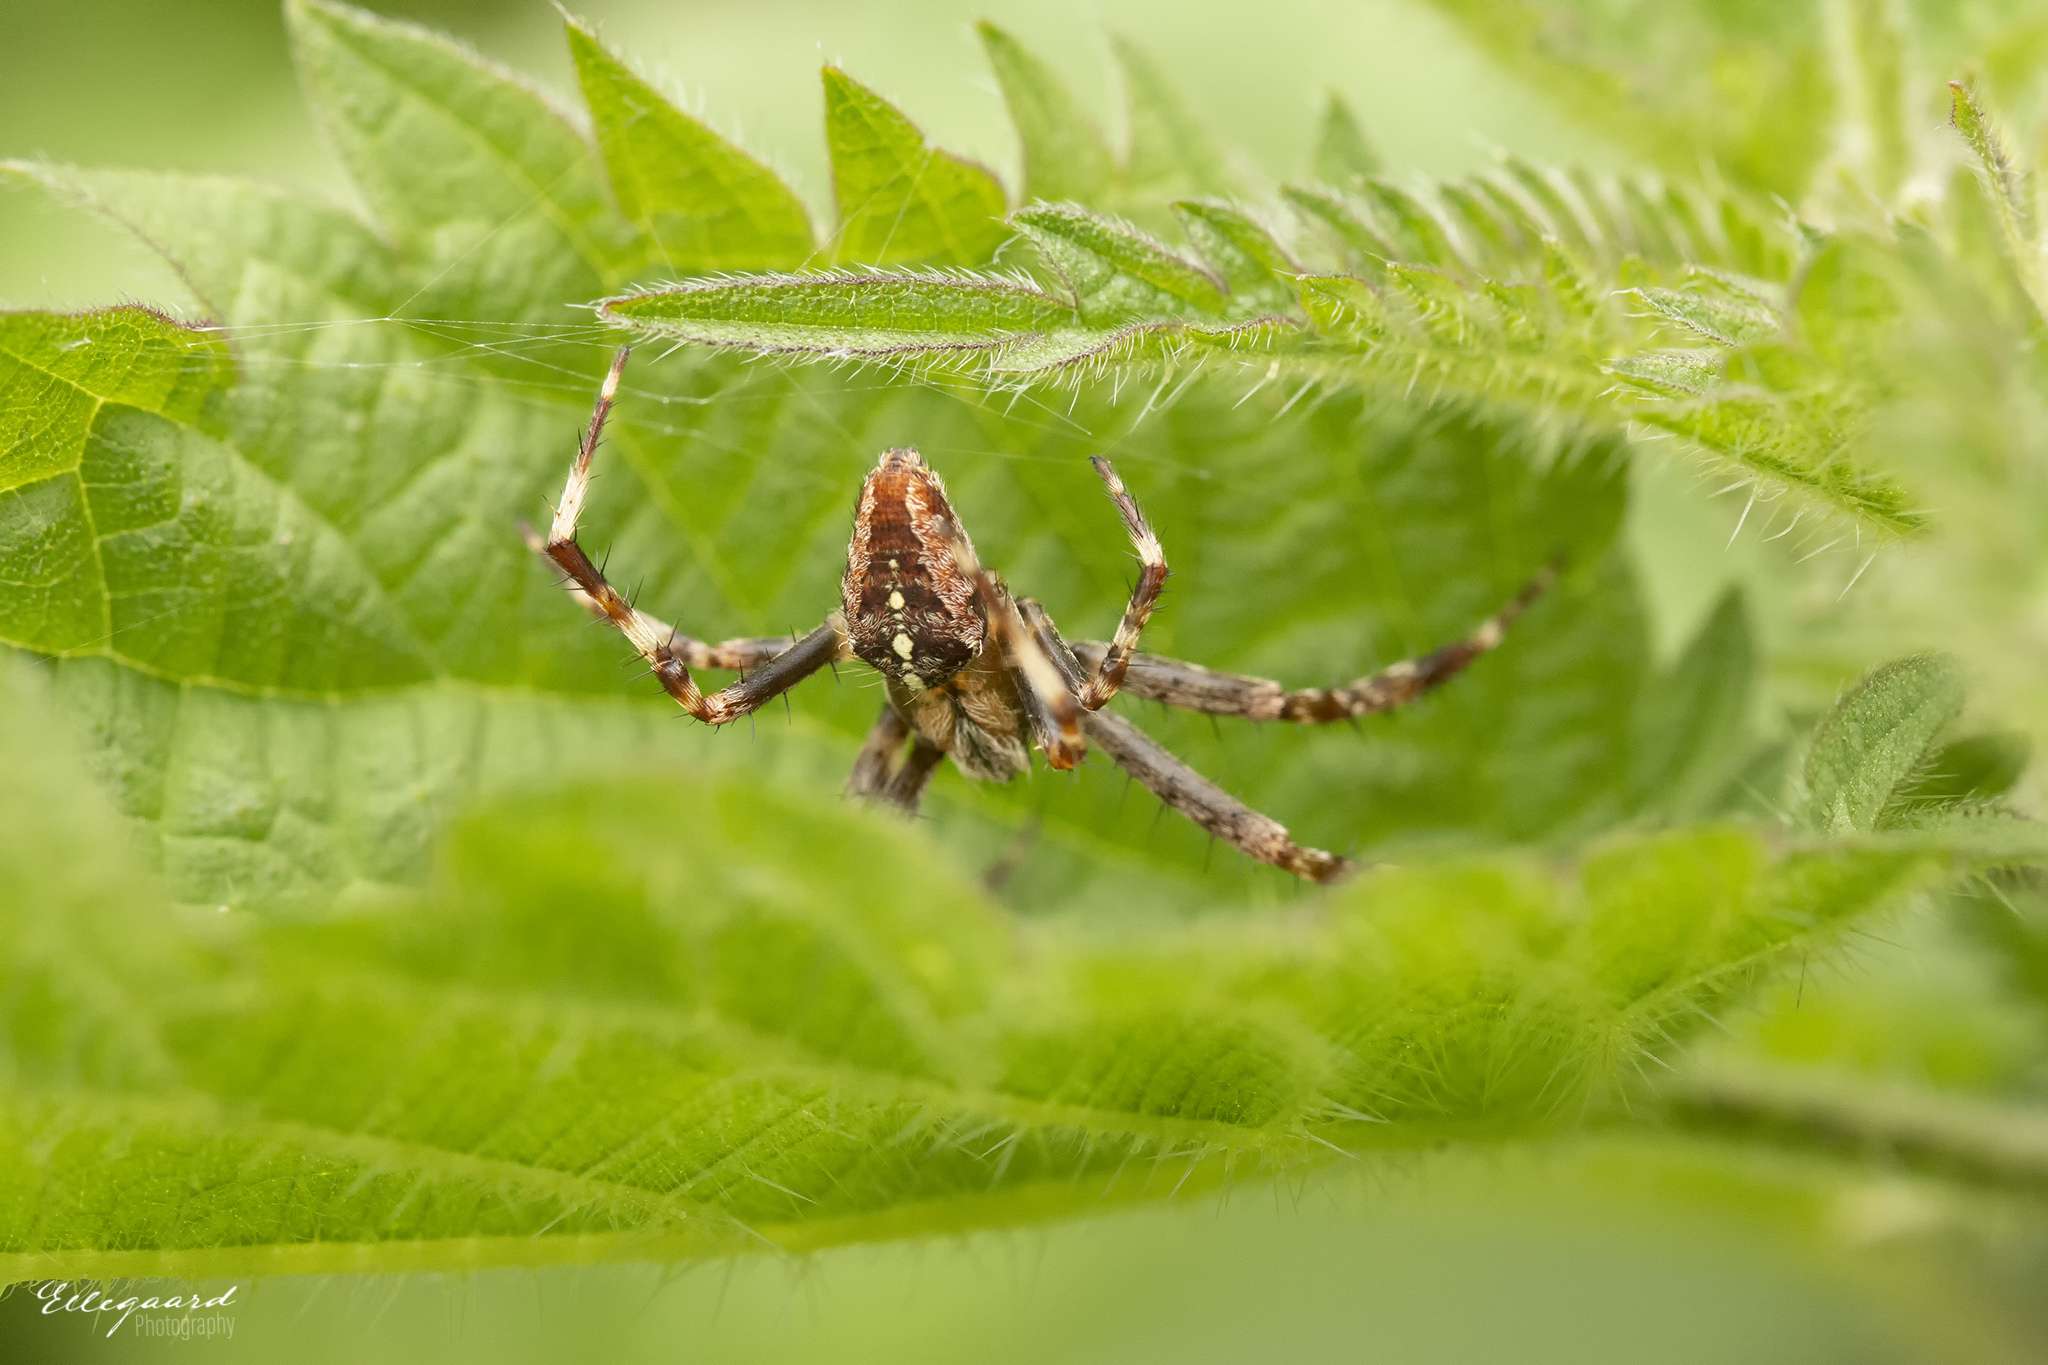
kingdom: Animalia
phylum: Arthropoda
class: Arachnida
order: Araneae
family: Araneidae
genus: Araneus
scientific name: Araneus diadematus
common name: Cross orbweaver
